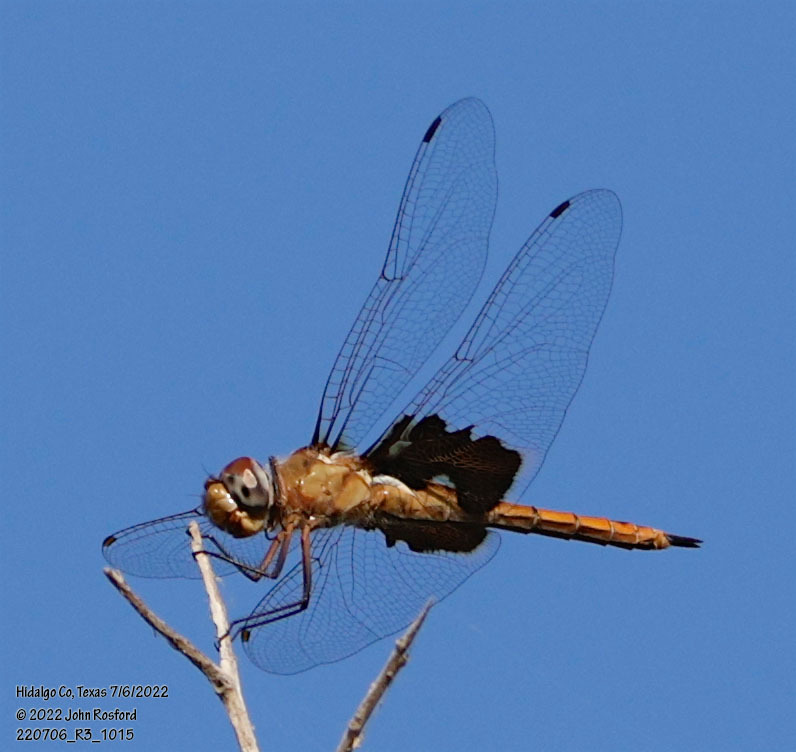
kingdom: Animalia
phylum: Arthropoda
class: Insecta
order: Odonata
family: Libellulidae
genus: Tramea
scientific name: Tramea onusta
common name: Red saddlebags
